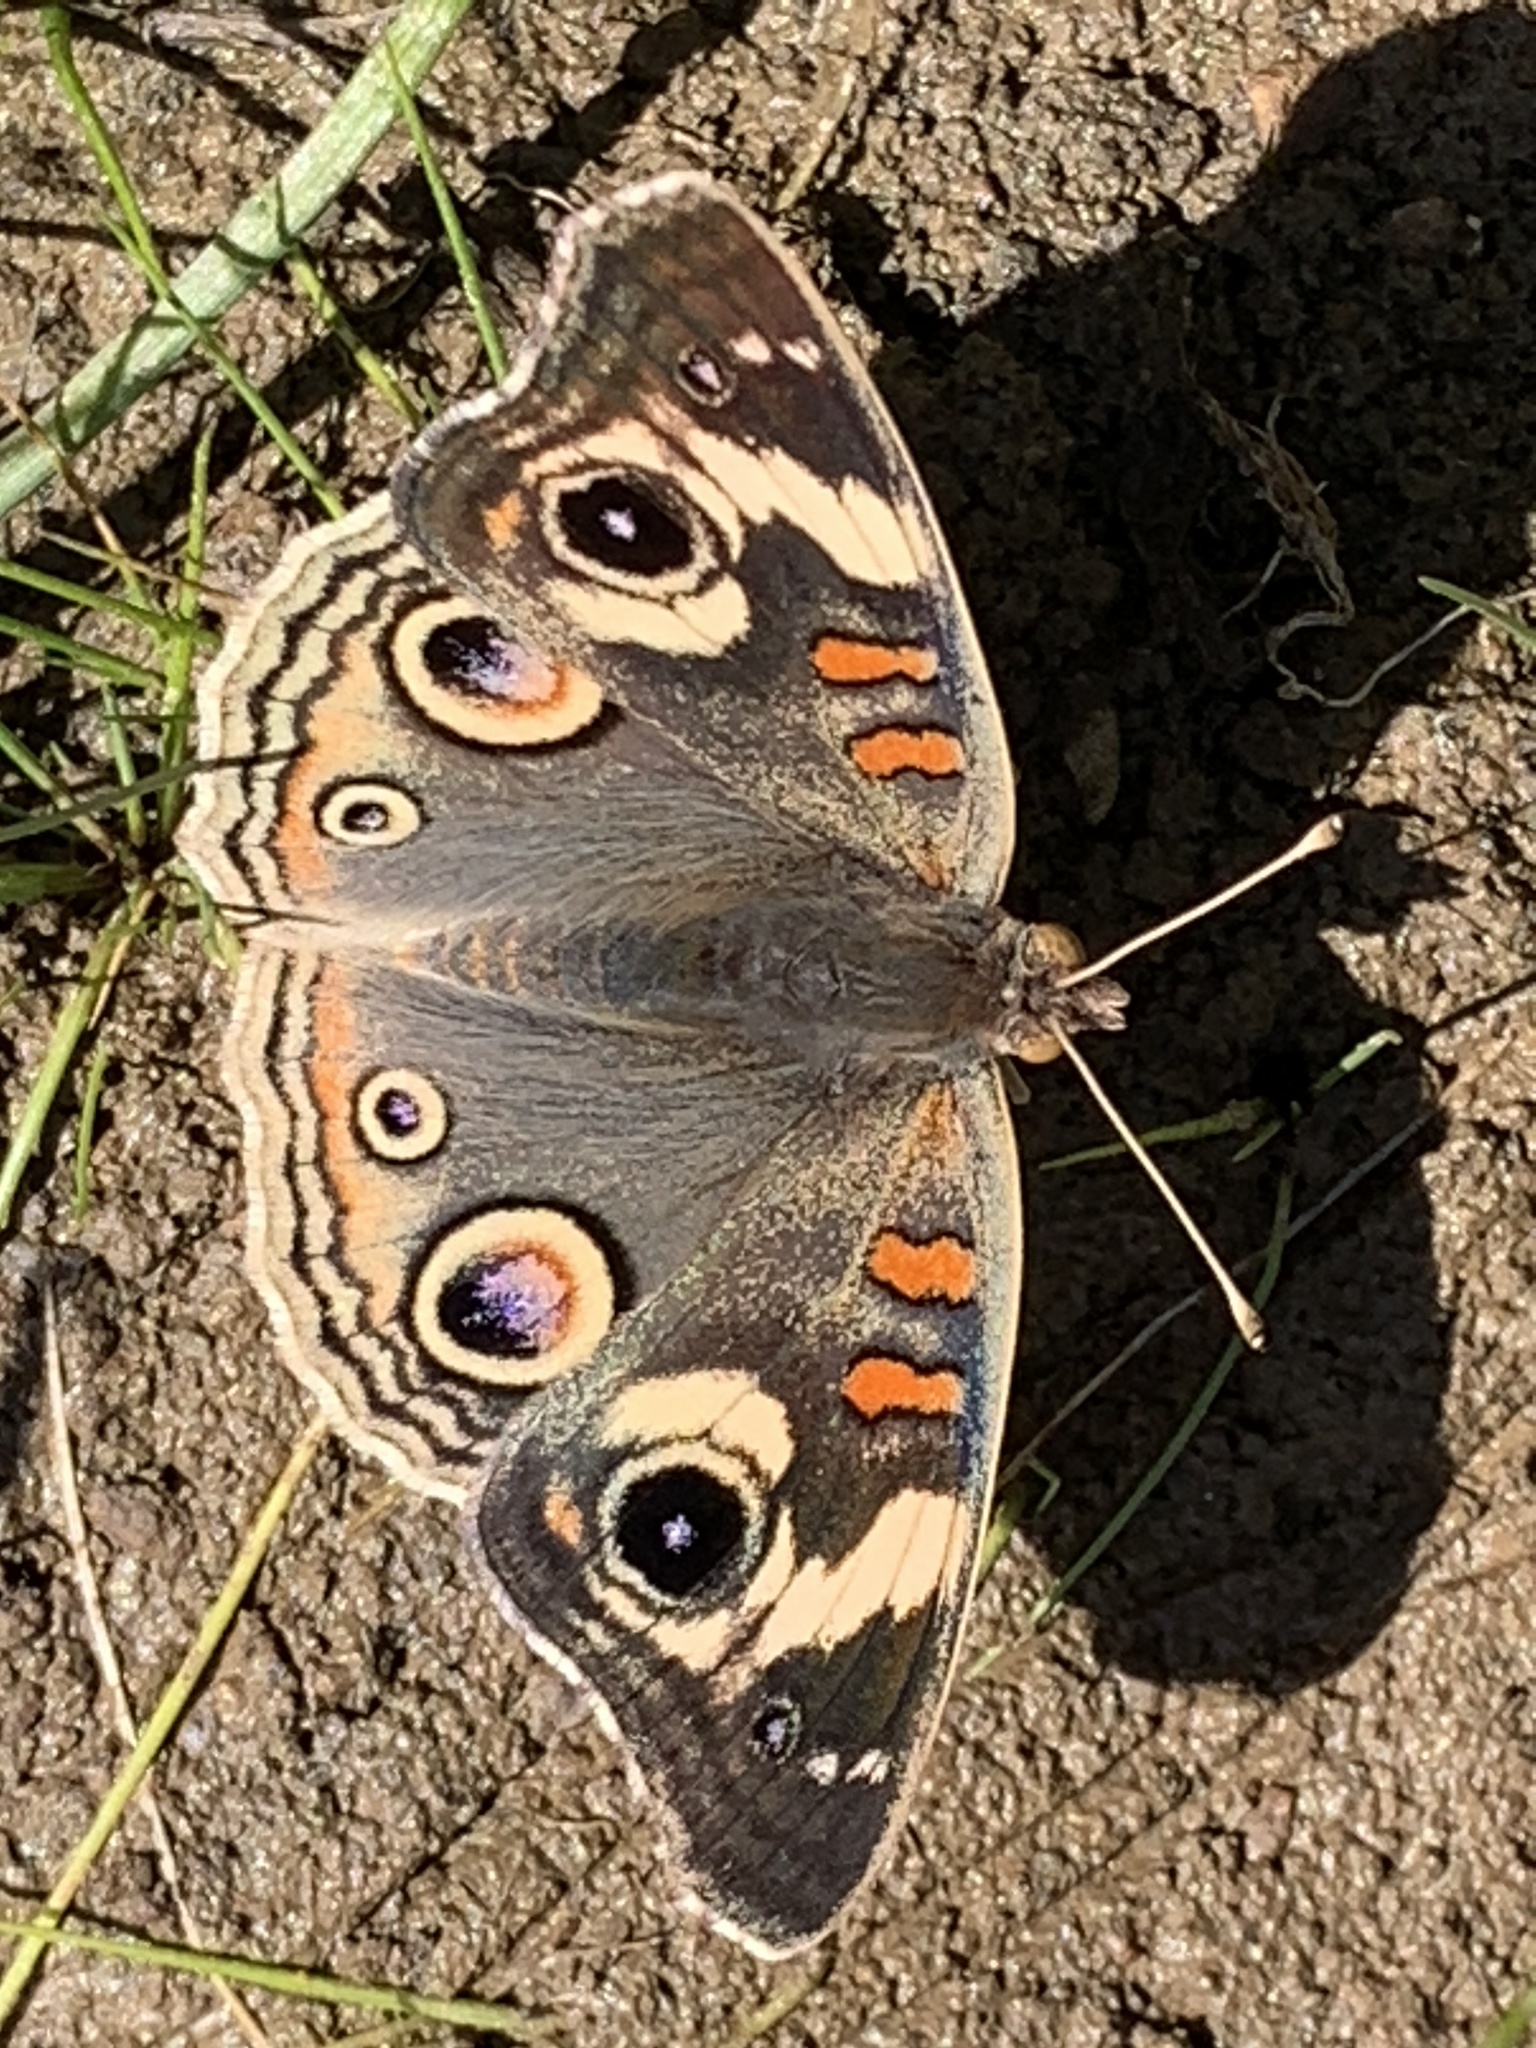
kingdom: Animalia
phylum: Arthropoda
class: Insecta
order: Lepidoptera
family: Nymphalidae
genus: Junonia
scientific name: Junonia grisea
